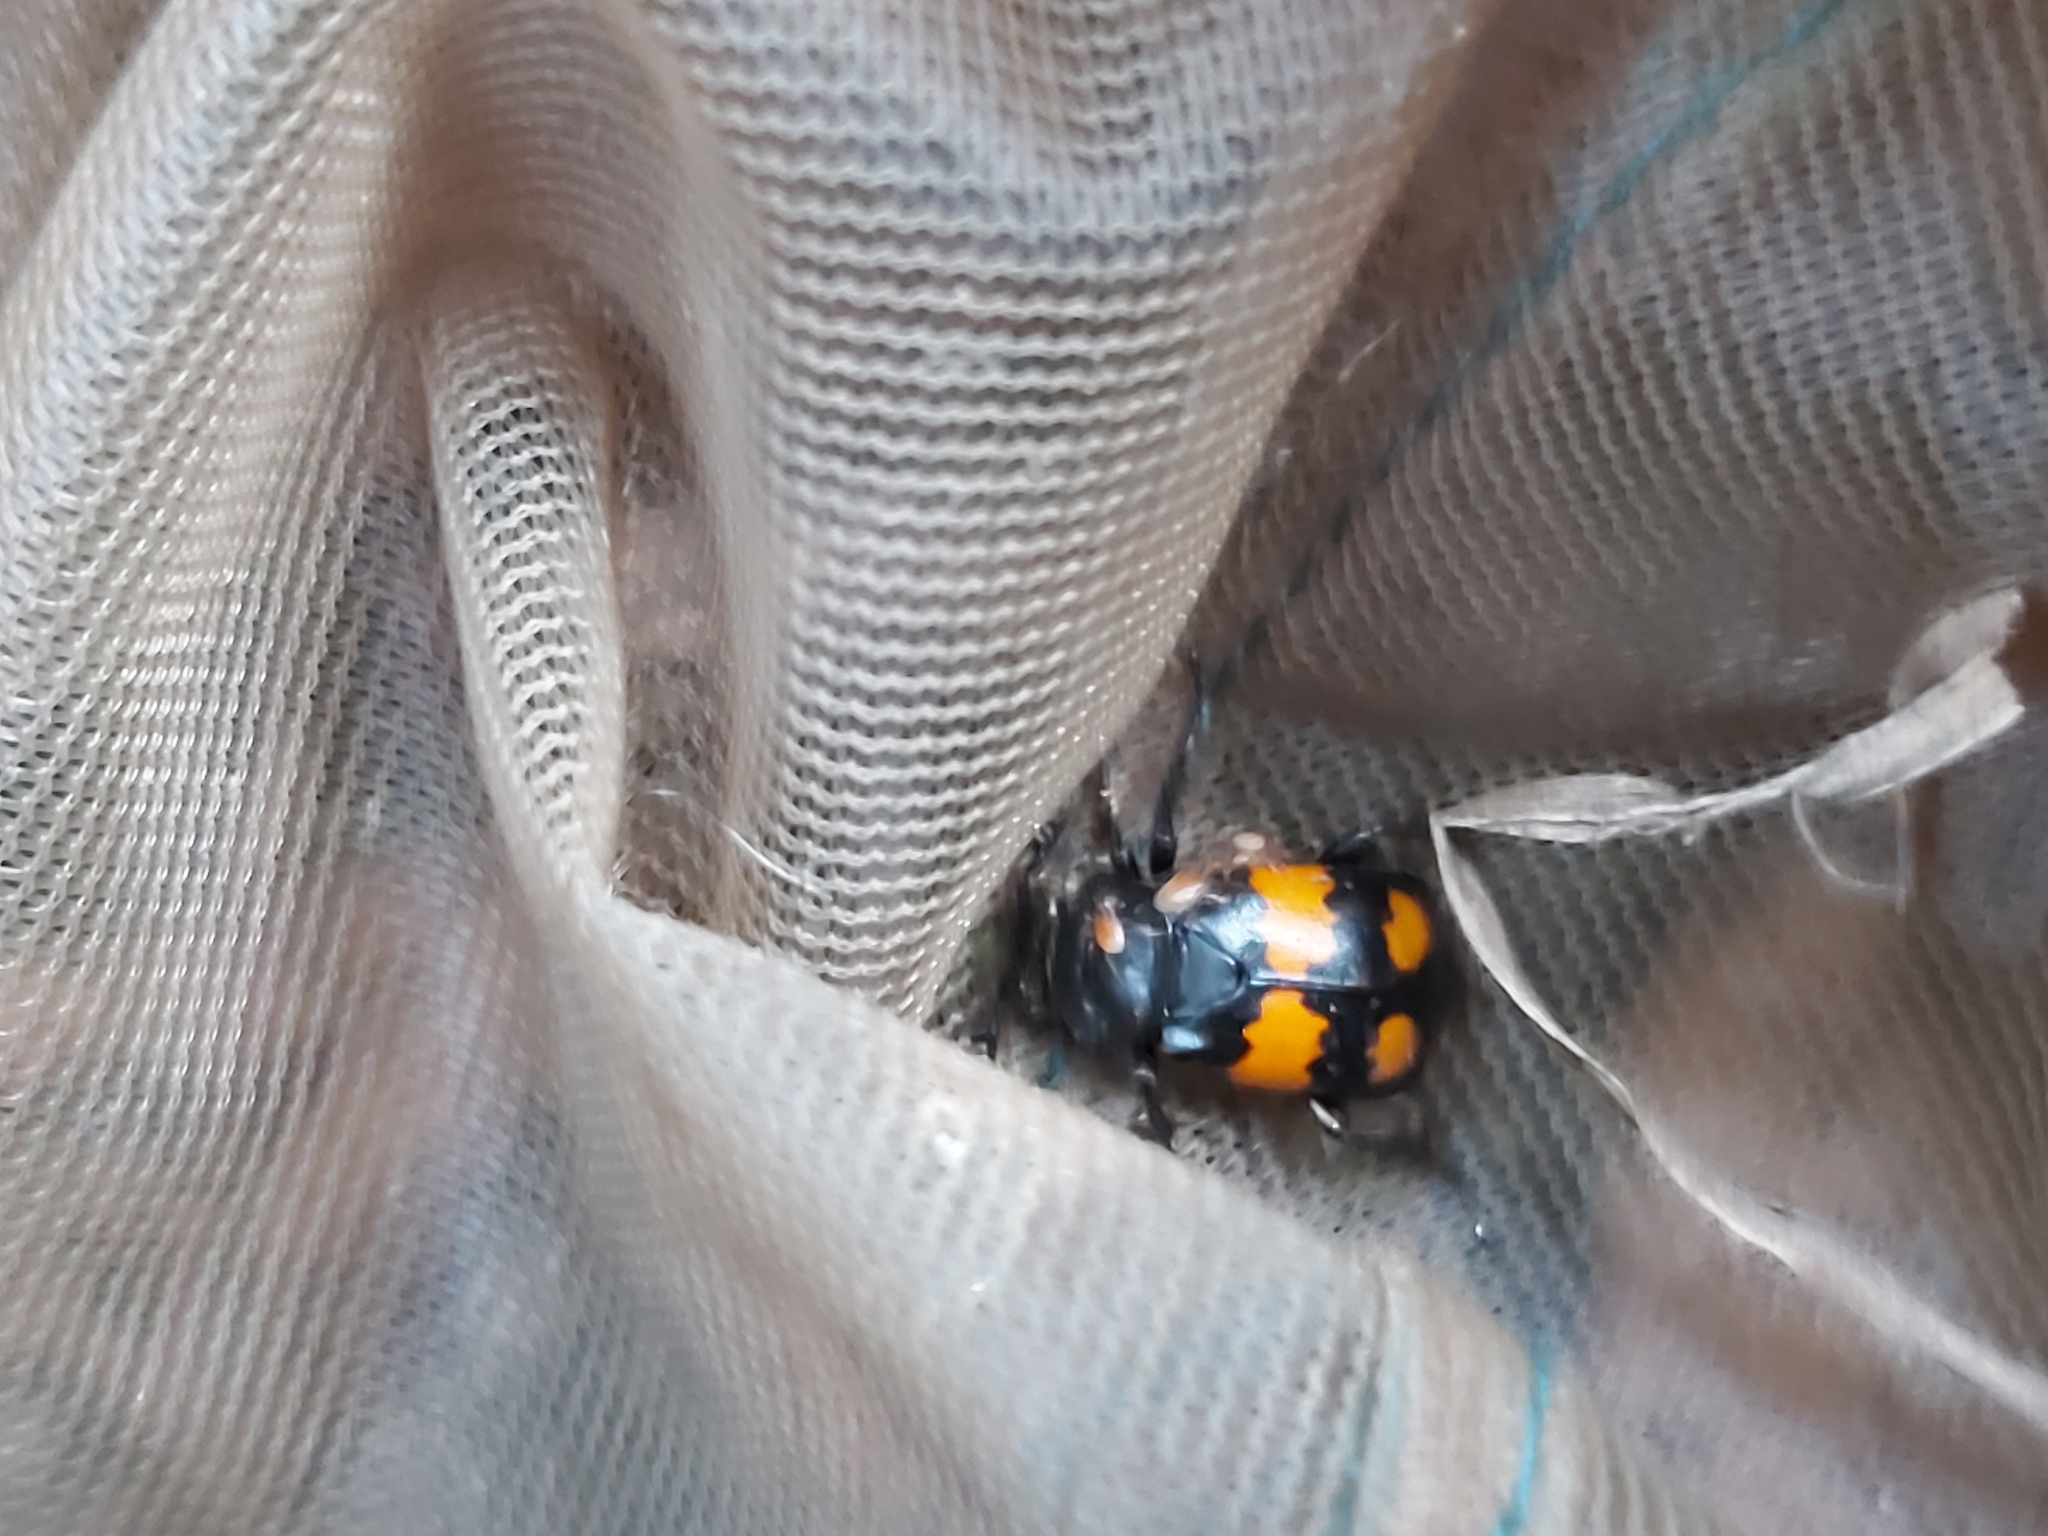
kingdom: Animalia
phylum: Arthropoda
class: Insecta
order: Coleoptera
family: Staphylinidae
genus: Nicrophorus
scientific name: Nicrophorus vespilloides
